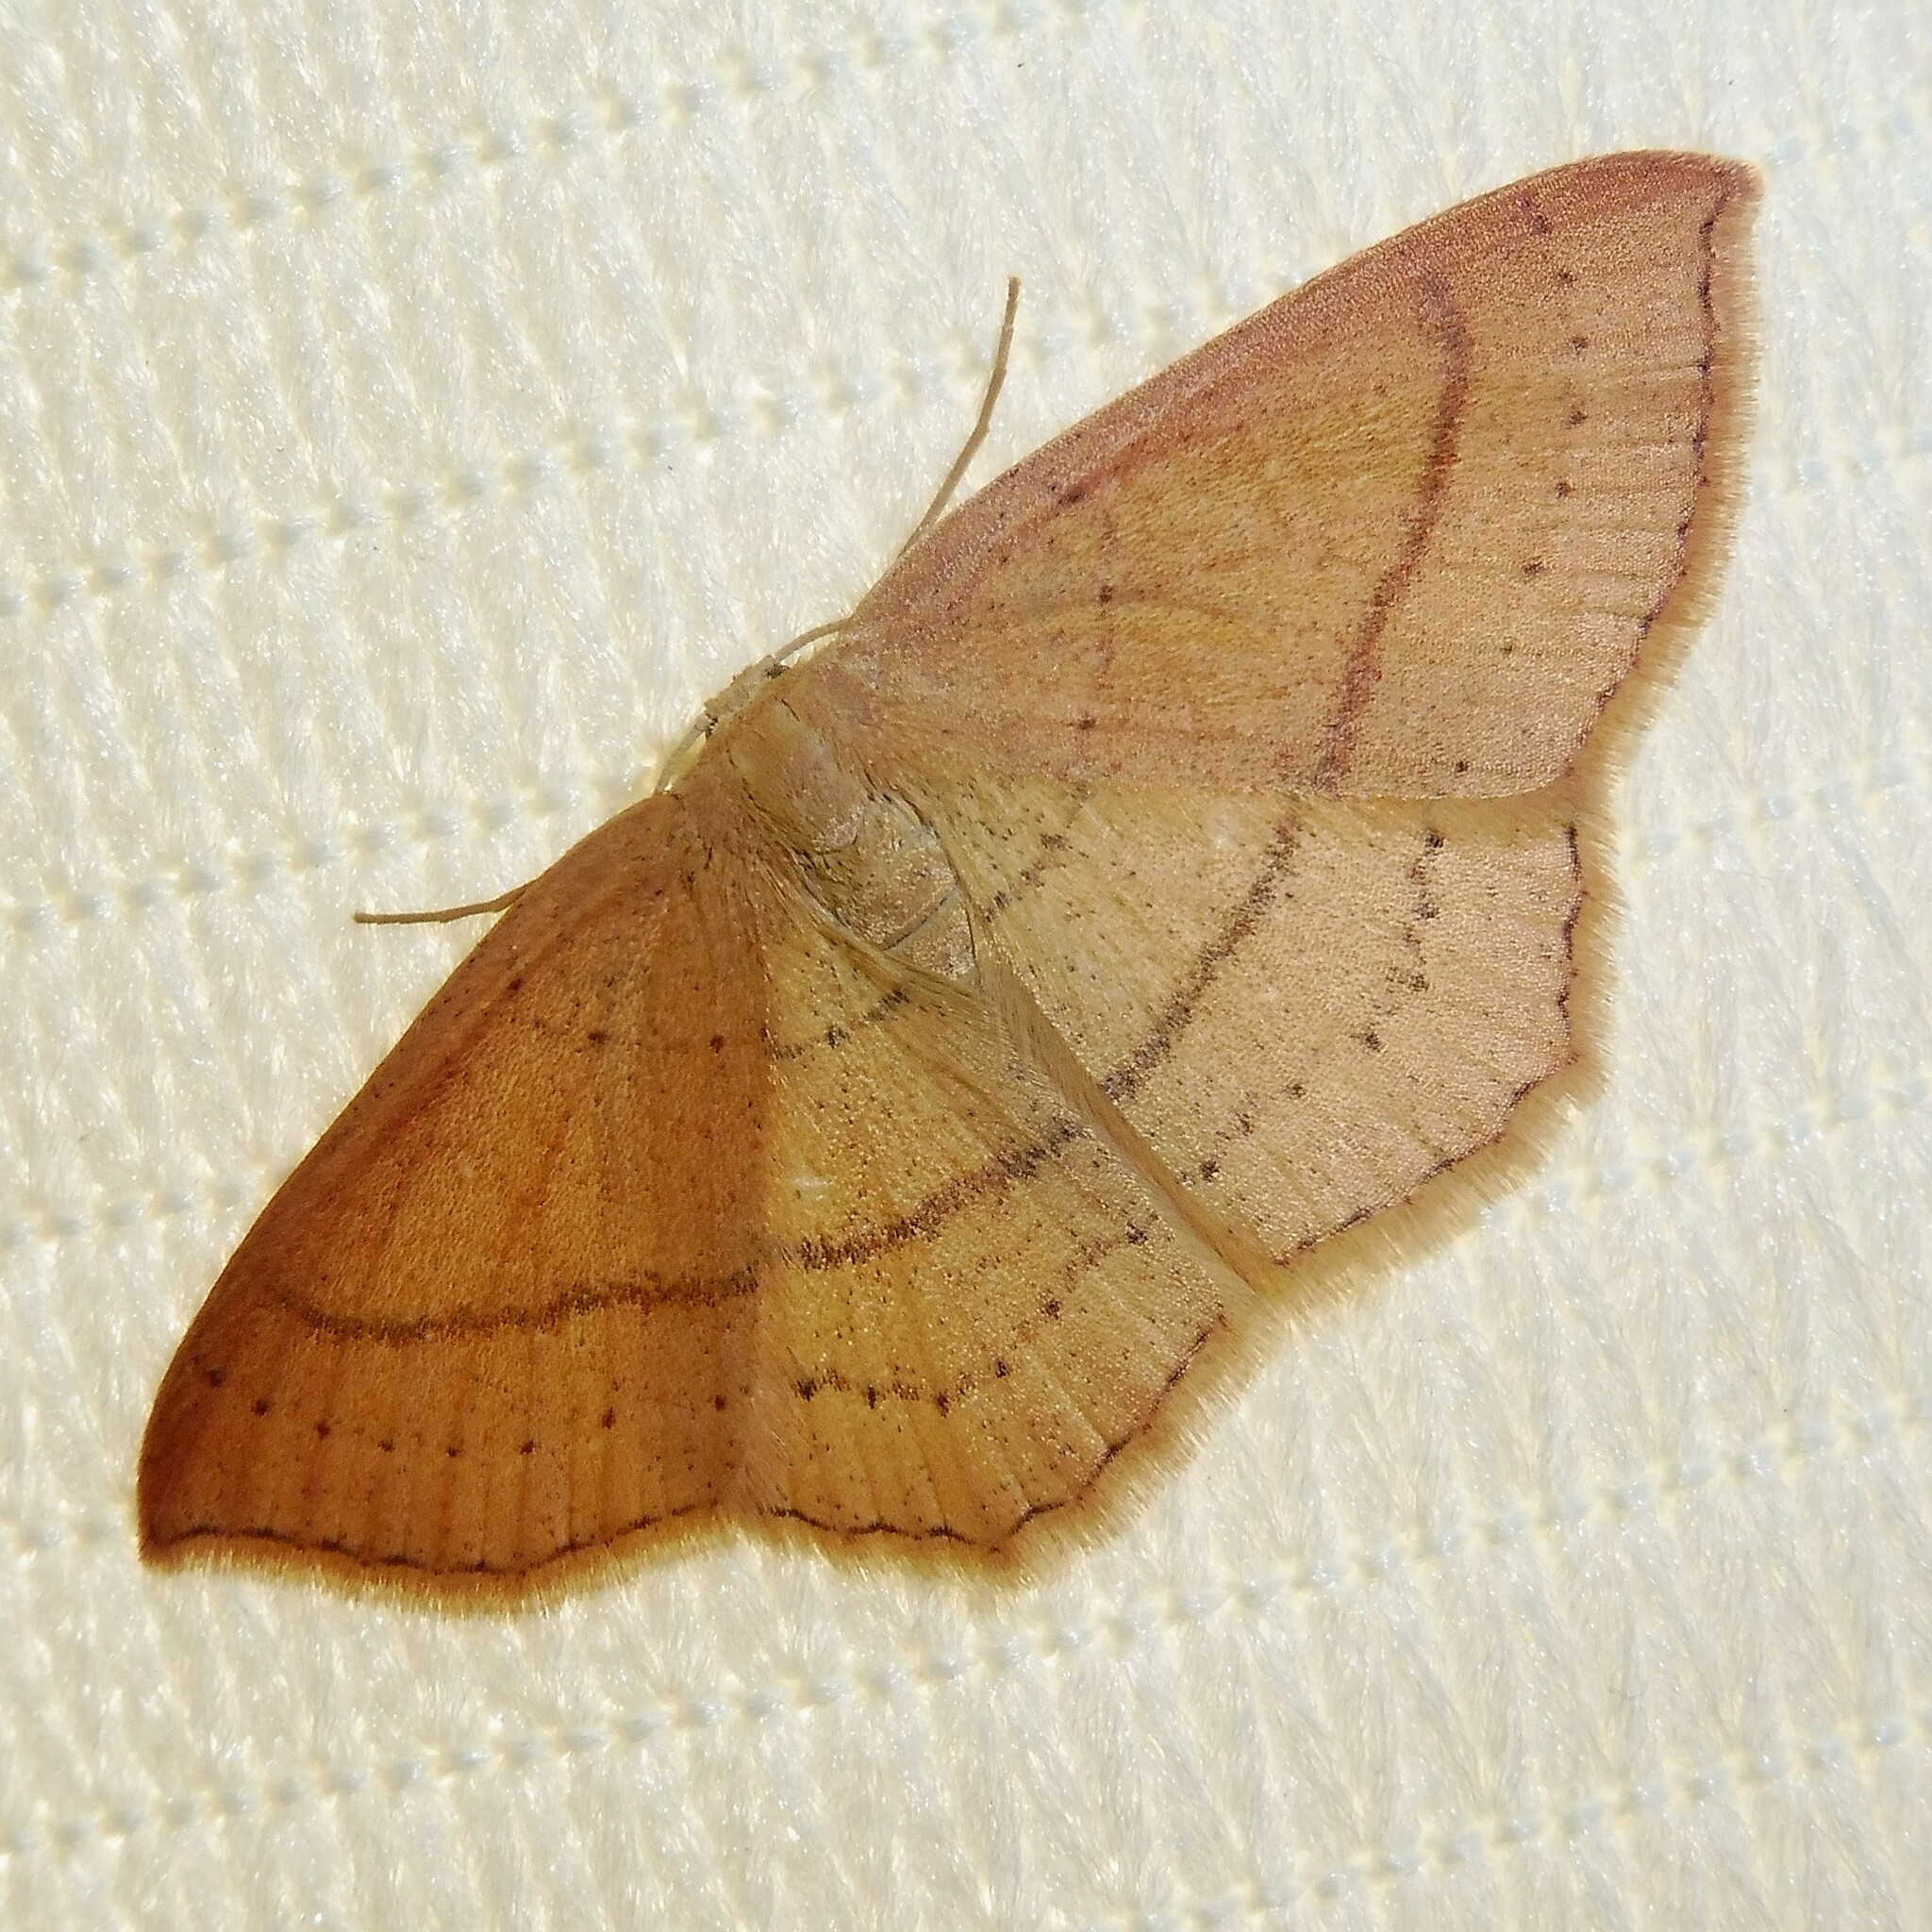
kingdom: Animalia
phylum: Arthropoda
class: Insecta
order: Lepidoptera
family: Geometridae
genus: Cyclophora
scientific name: Cyclophora linearia
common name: Clay triple-lines
